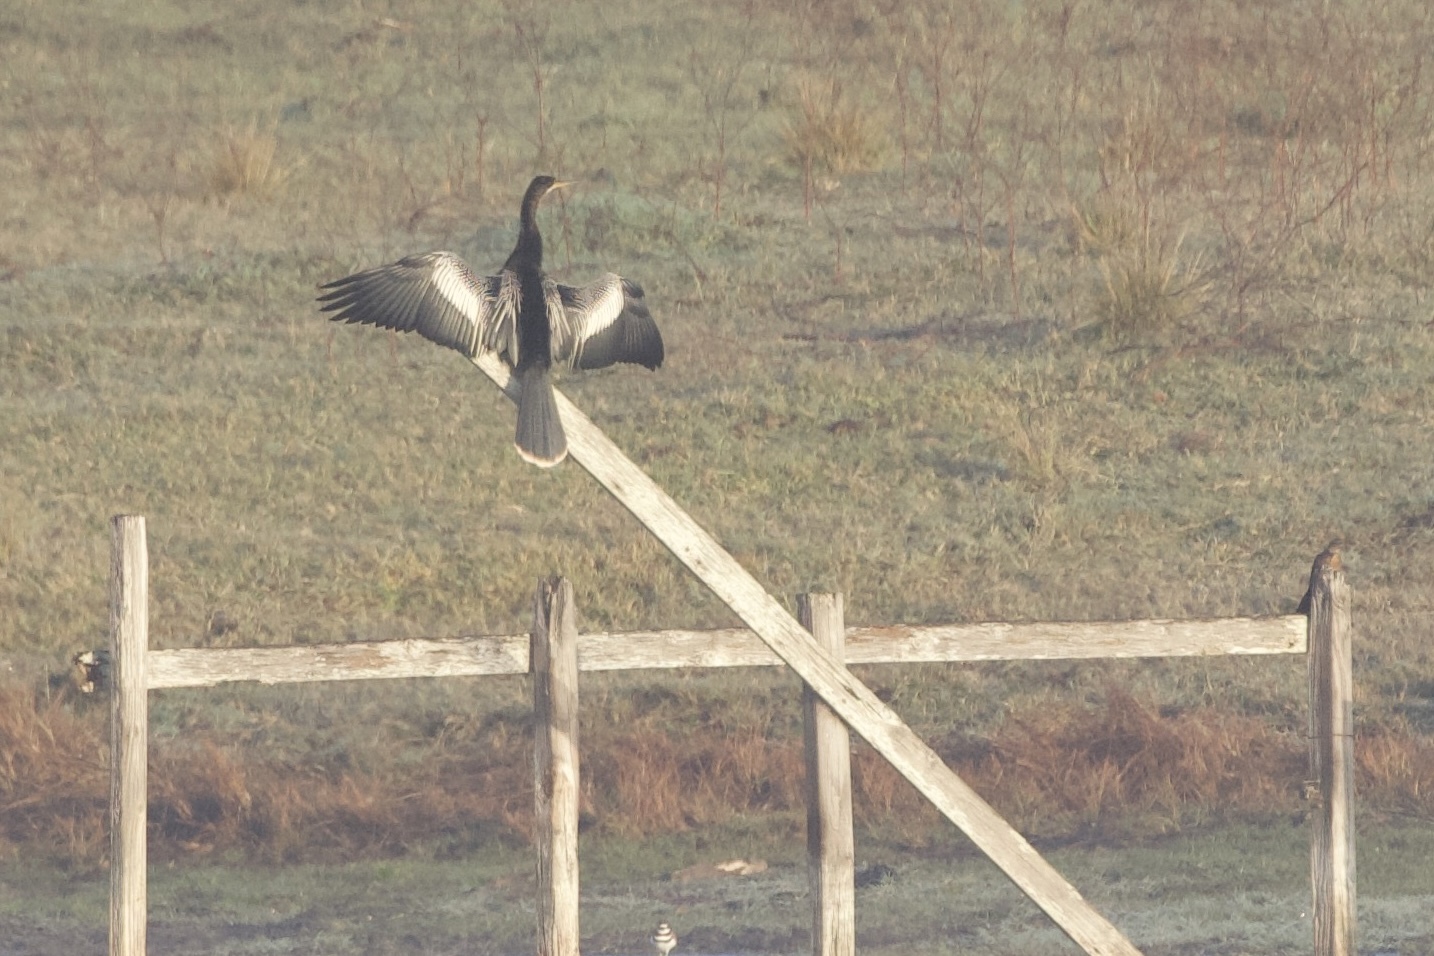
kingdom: Animalia
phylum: Chordata
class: Aves
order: Suliformes
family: Anhingidae
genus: Anhinga
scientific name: Anhinga anhinga
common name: Anhinga
